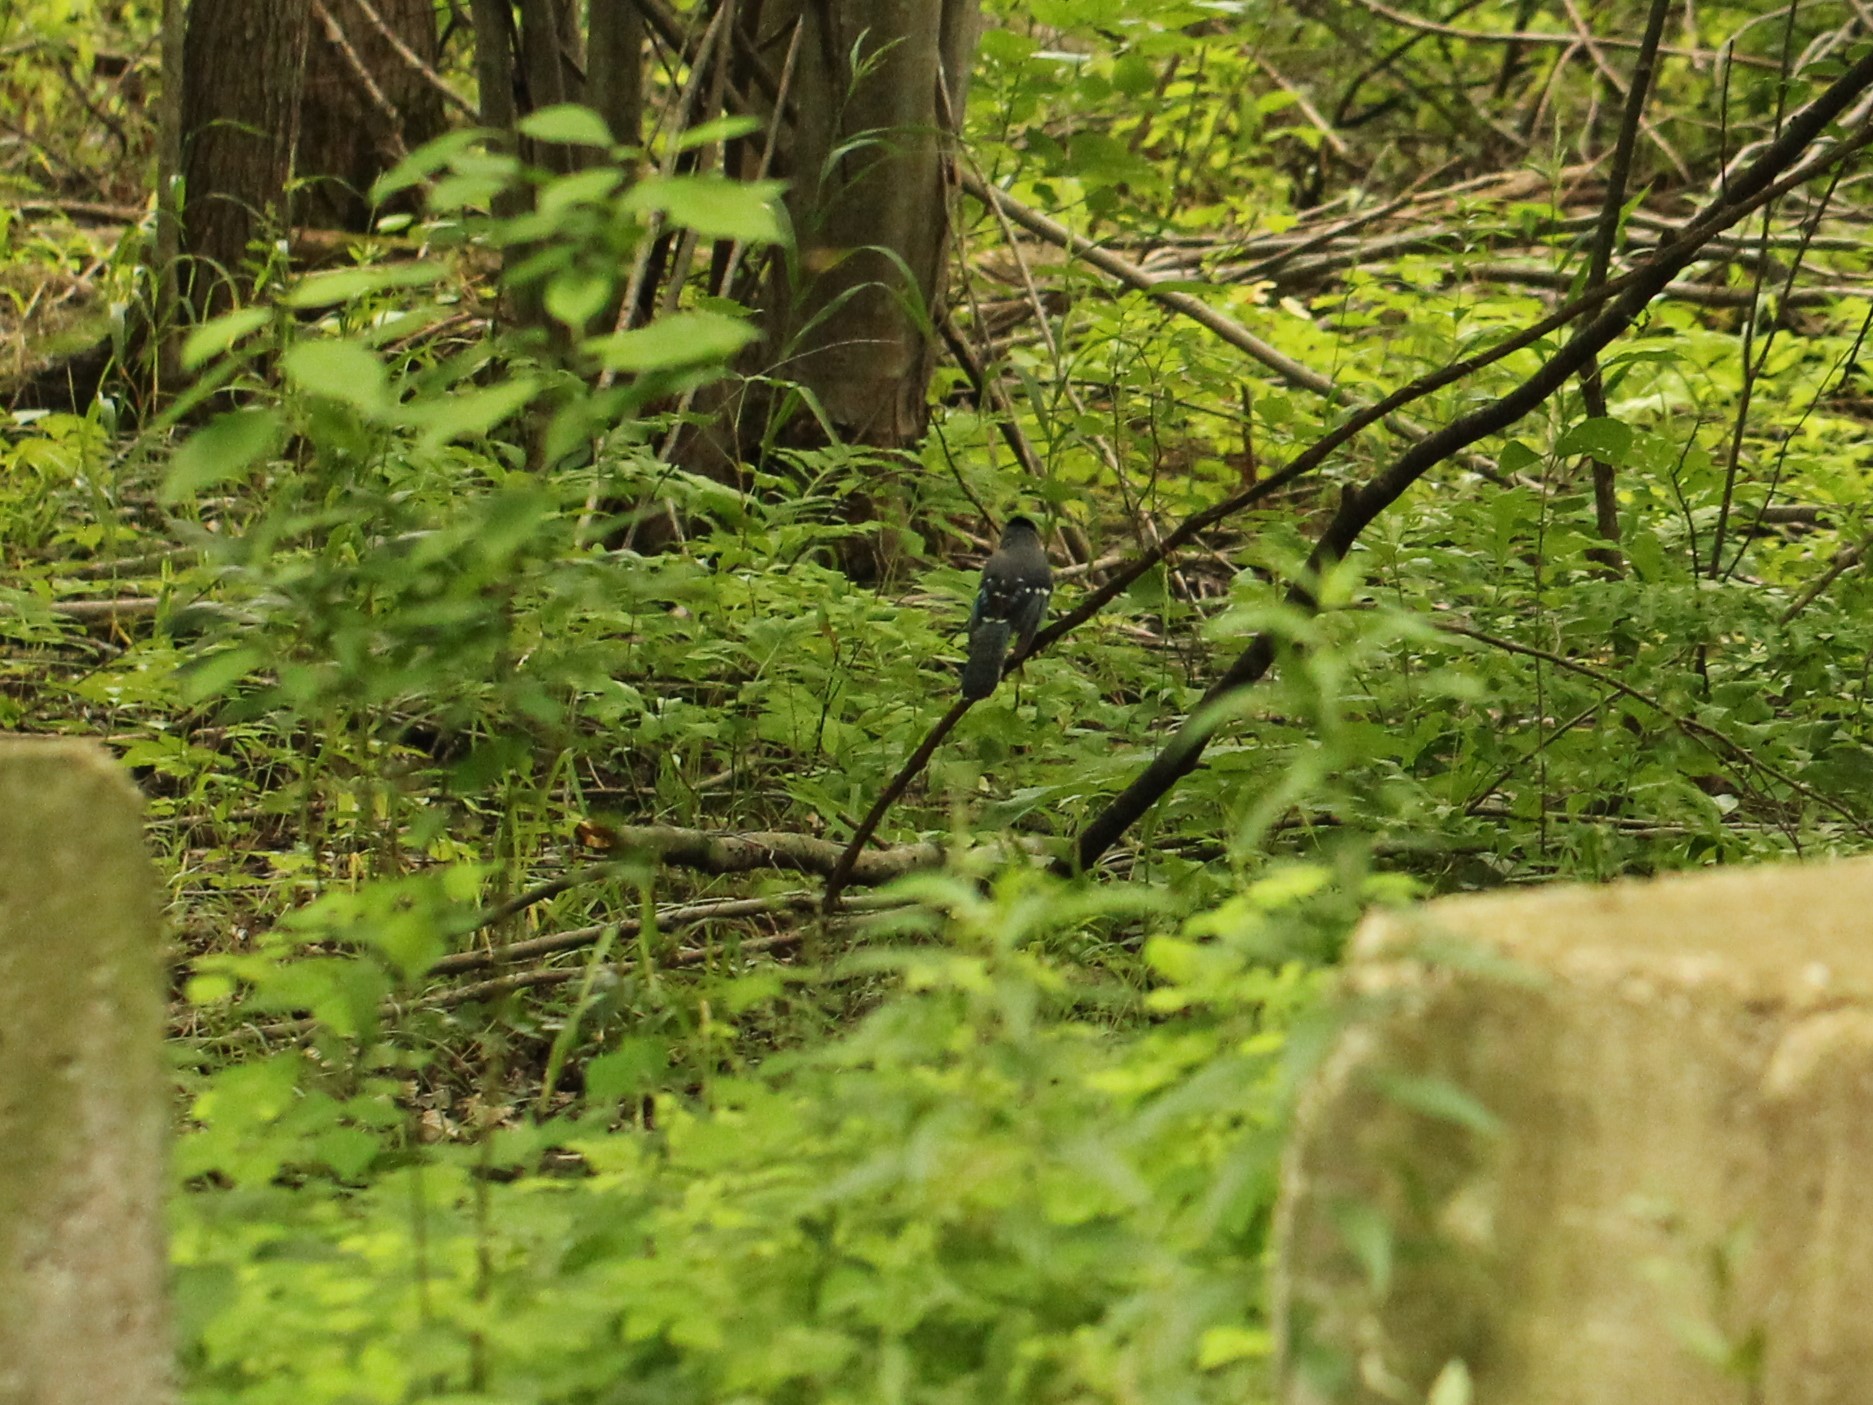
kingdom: Animalia
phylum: Chordata
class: Aves
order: Passeriformes
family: Corvidae
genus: Cyanocitta
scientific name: Cyanocitta cristata
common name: Blue jay
